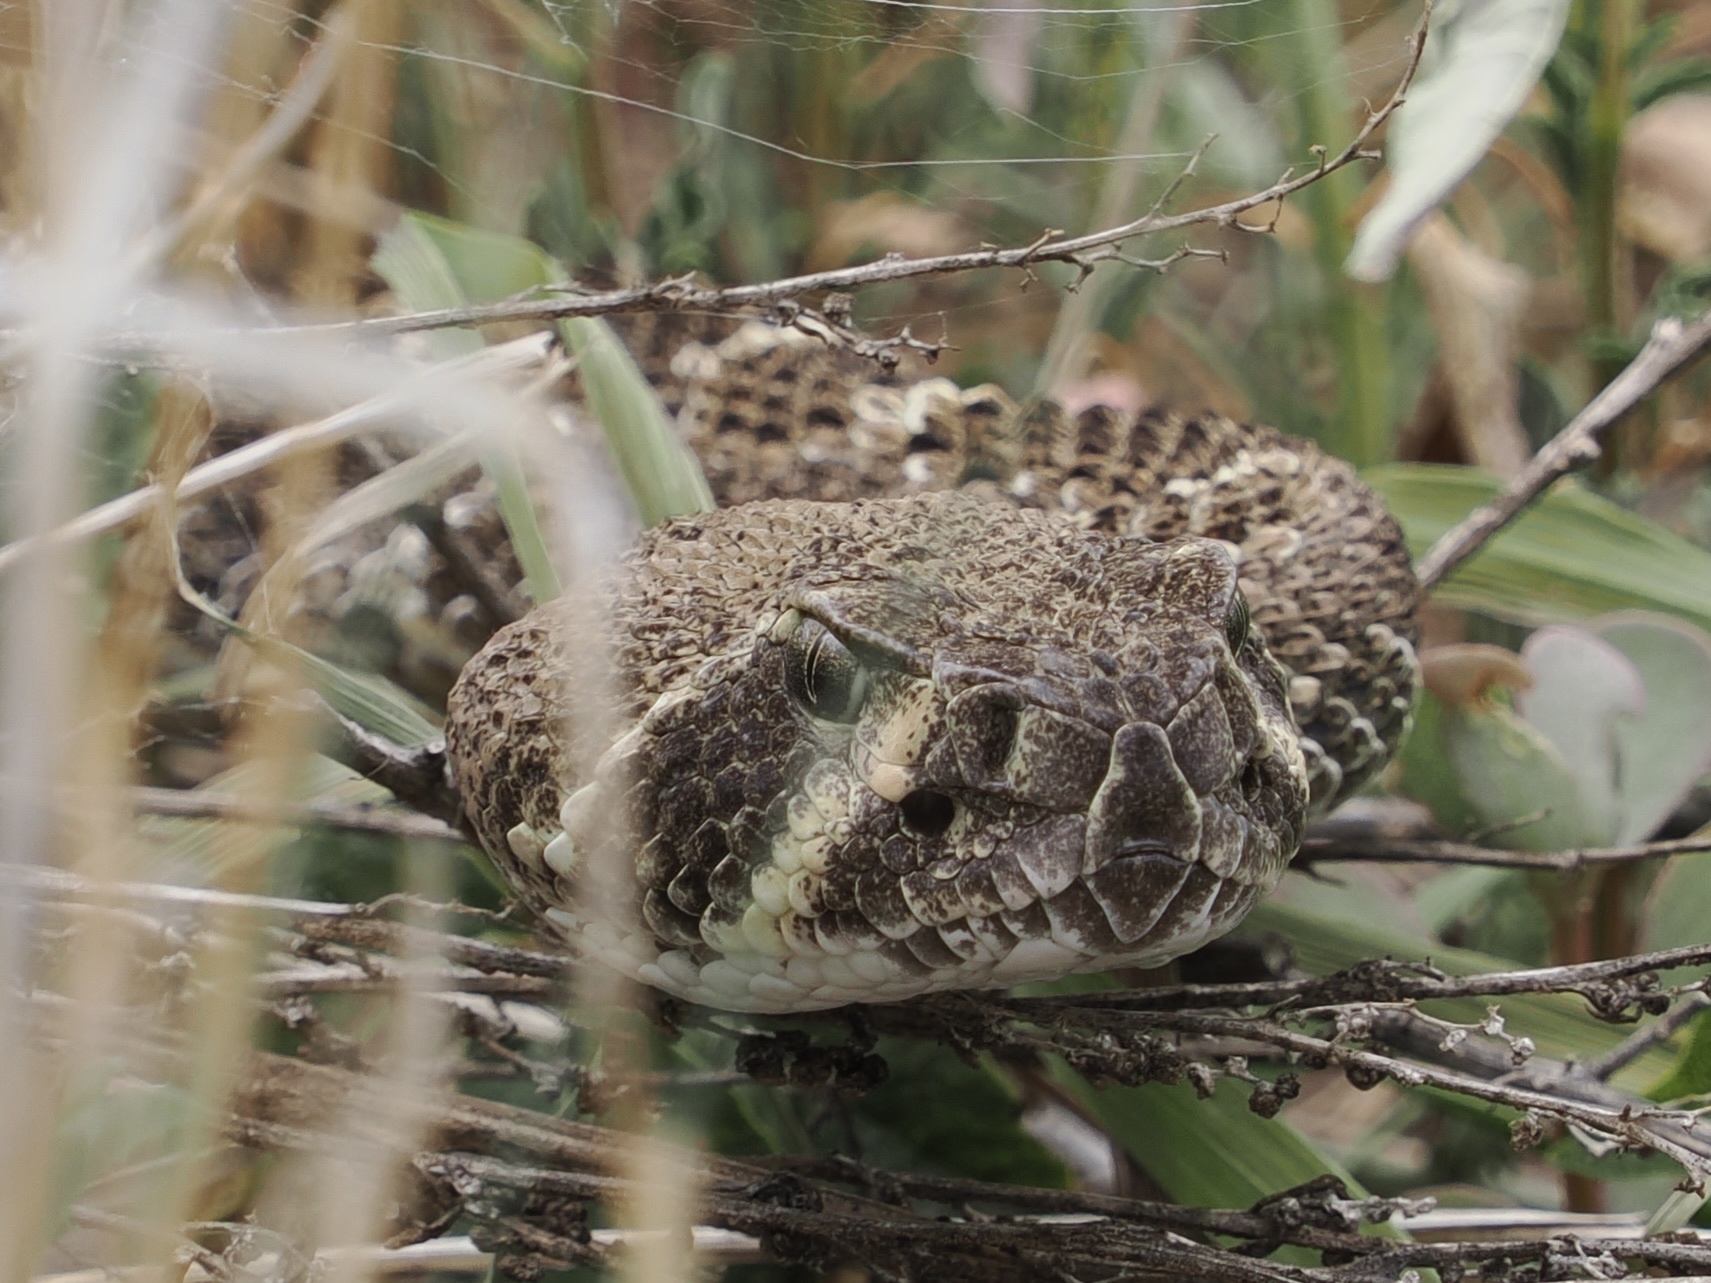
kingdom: Animalia
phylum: Chordata
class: Squamata
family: Viperidae
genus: Crotalus
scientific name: Crotalus atrox
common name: Western diamond-backed rattlesnake
